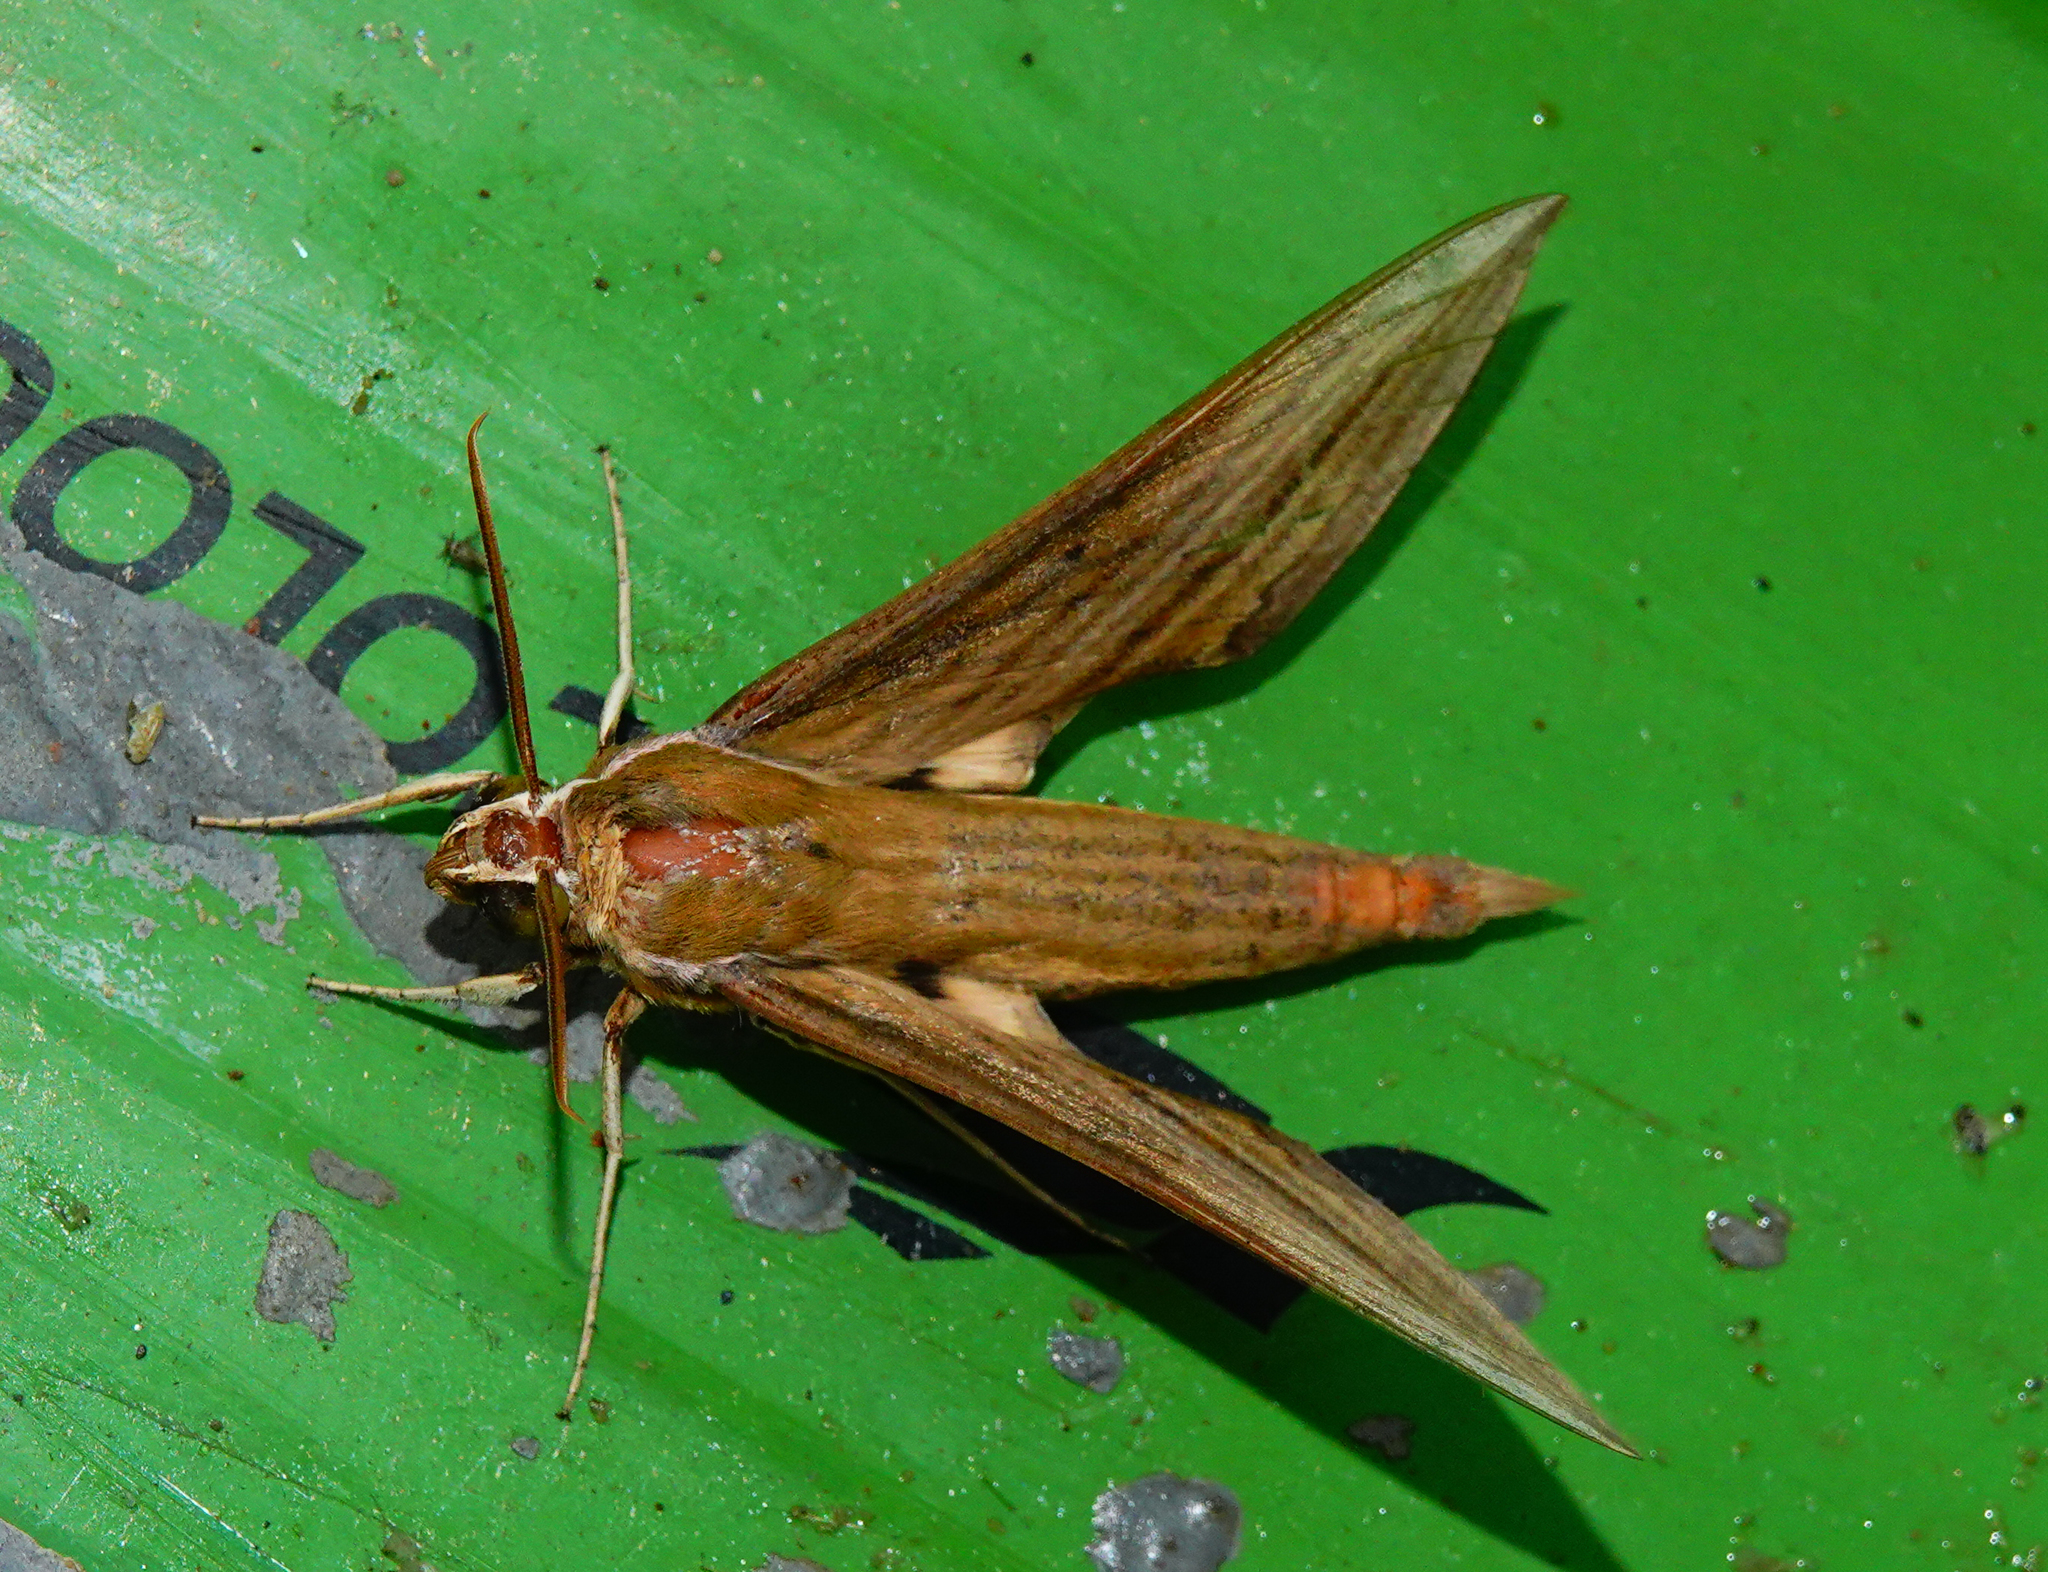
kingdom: Animalia
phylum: Arthropoda
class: Insecta
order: Lepidoptera
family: Sphingidae
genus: Cechetra
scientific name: Cechetra lineosa
